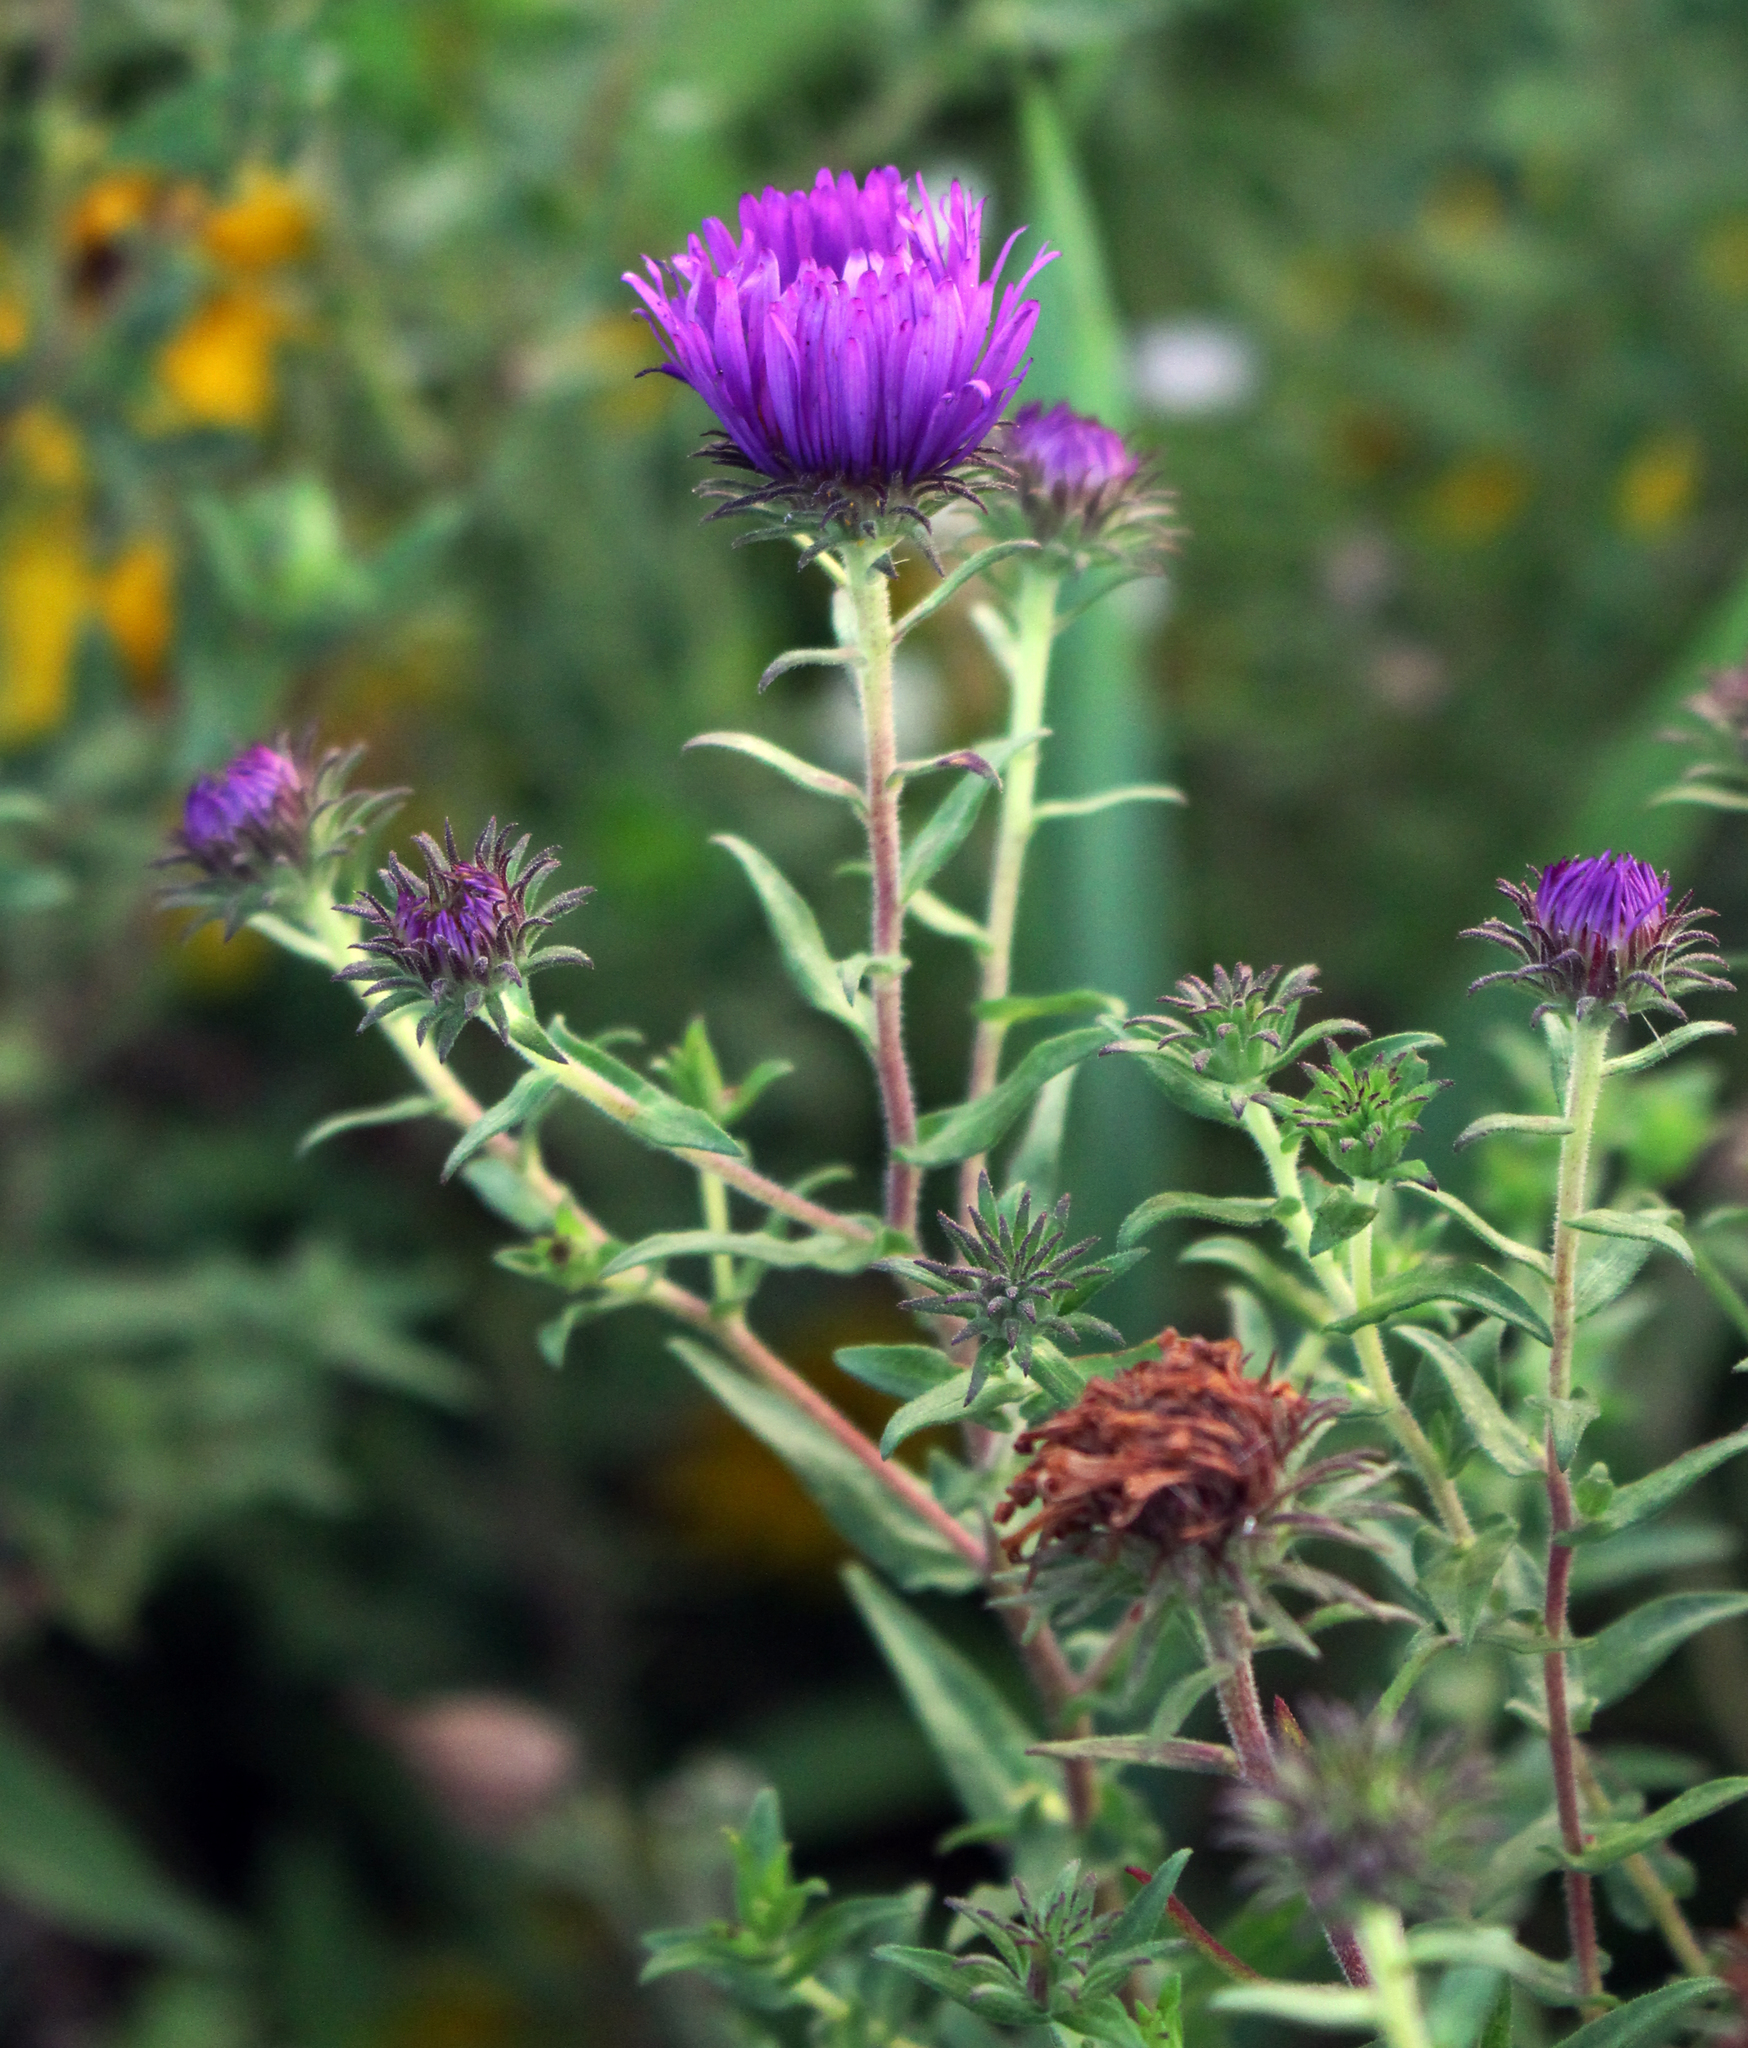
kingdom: Plantae
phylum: Tracheophyta
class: Magnoliopsida
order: Asterales
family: Asteraceae
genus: Symphyotrichum
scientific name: Symphyotrichum novae-angliae
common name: Michaelmas daisy
